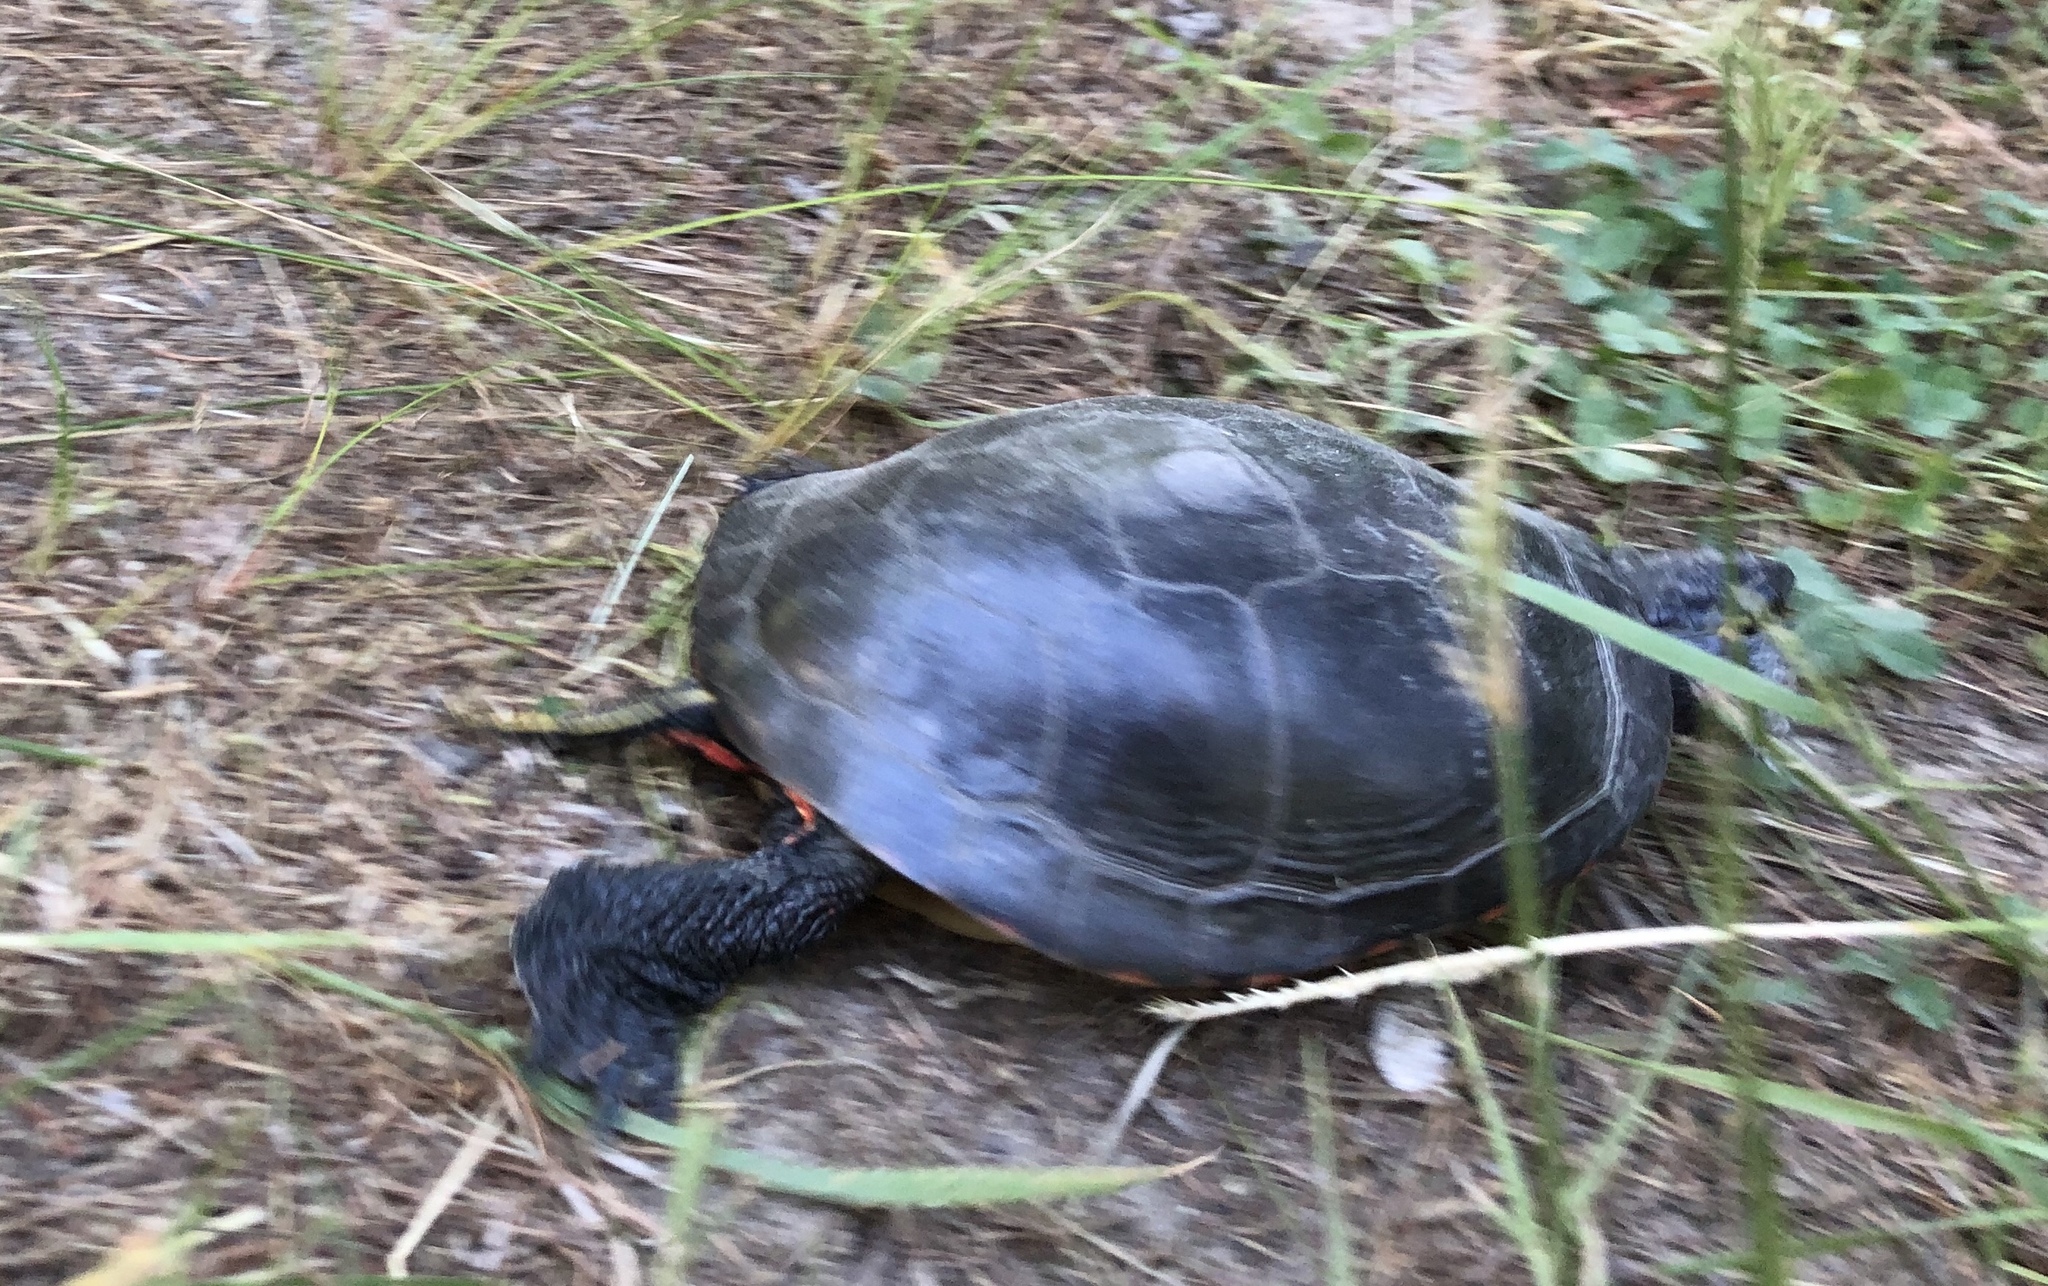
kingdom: Animalia
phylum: Chordata
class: Testudines
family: Emydidae
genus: Chrysemys
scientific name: Chrysemys picta
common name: Painted turtle
